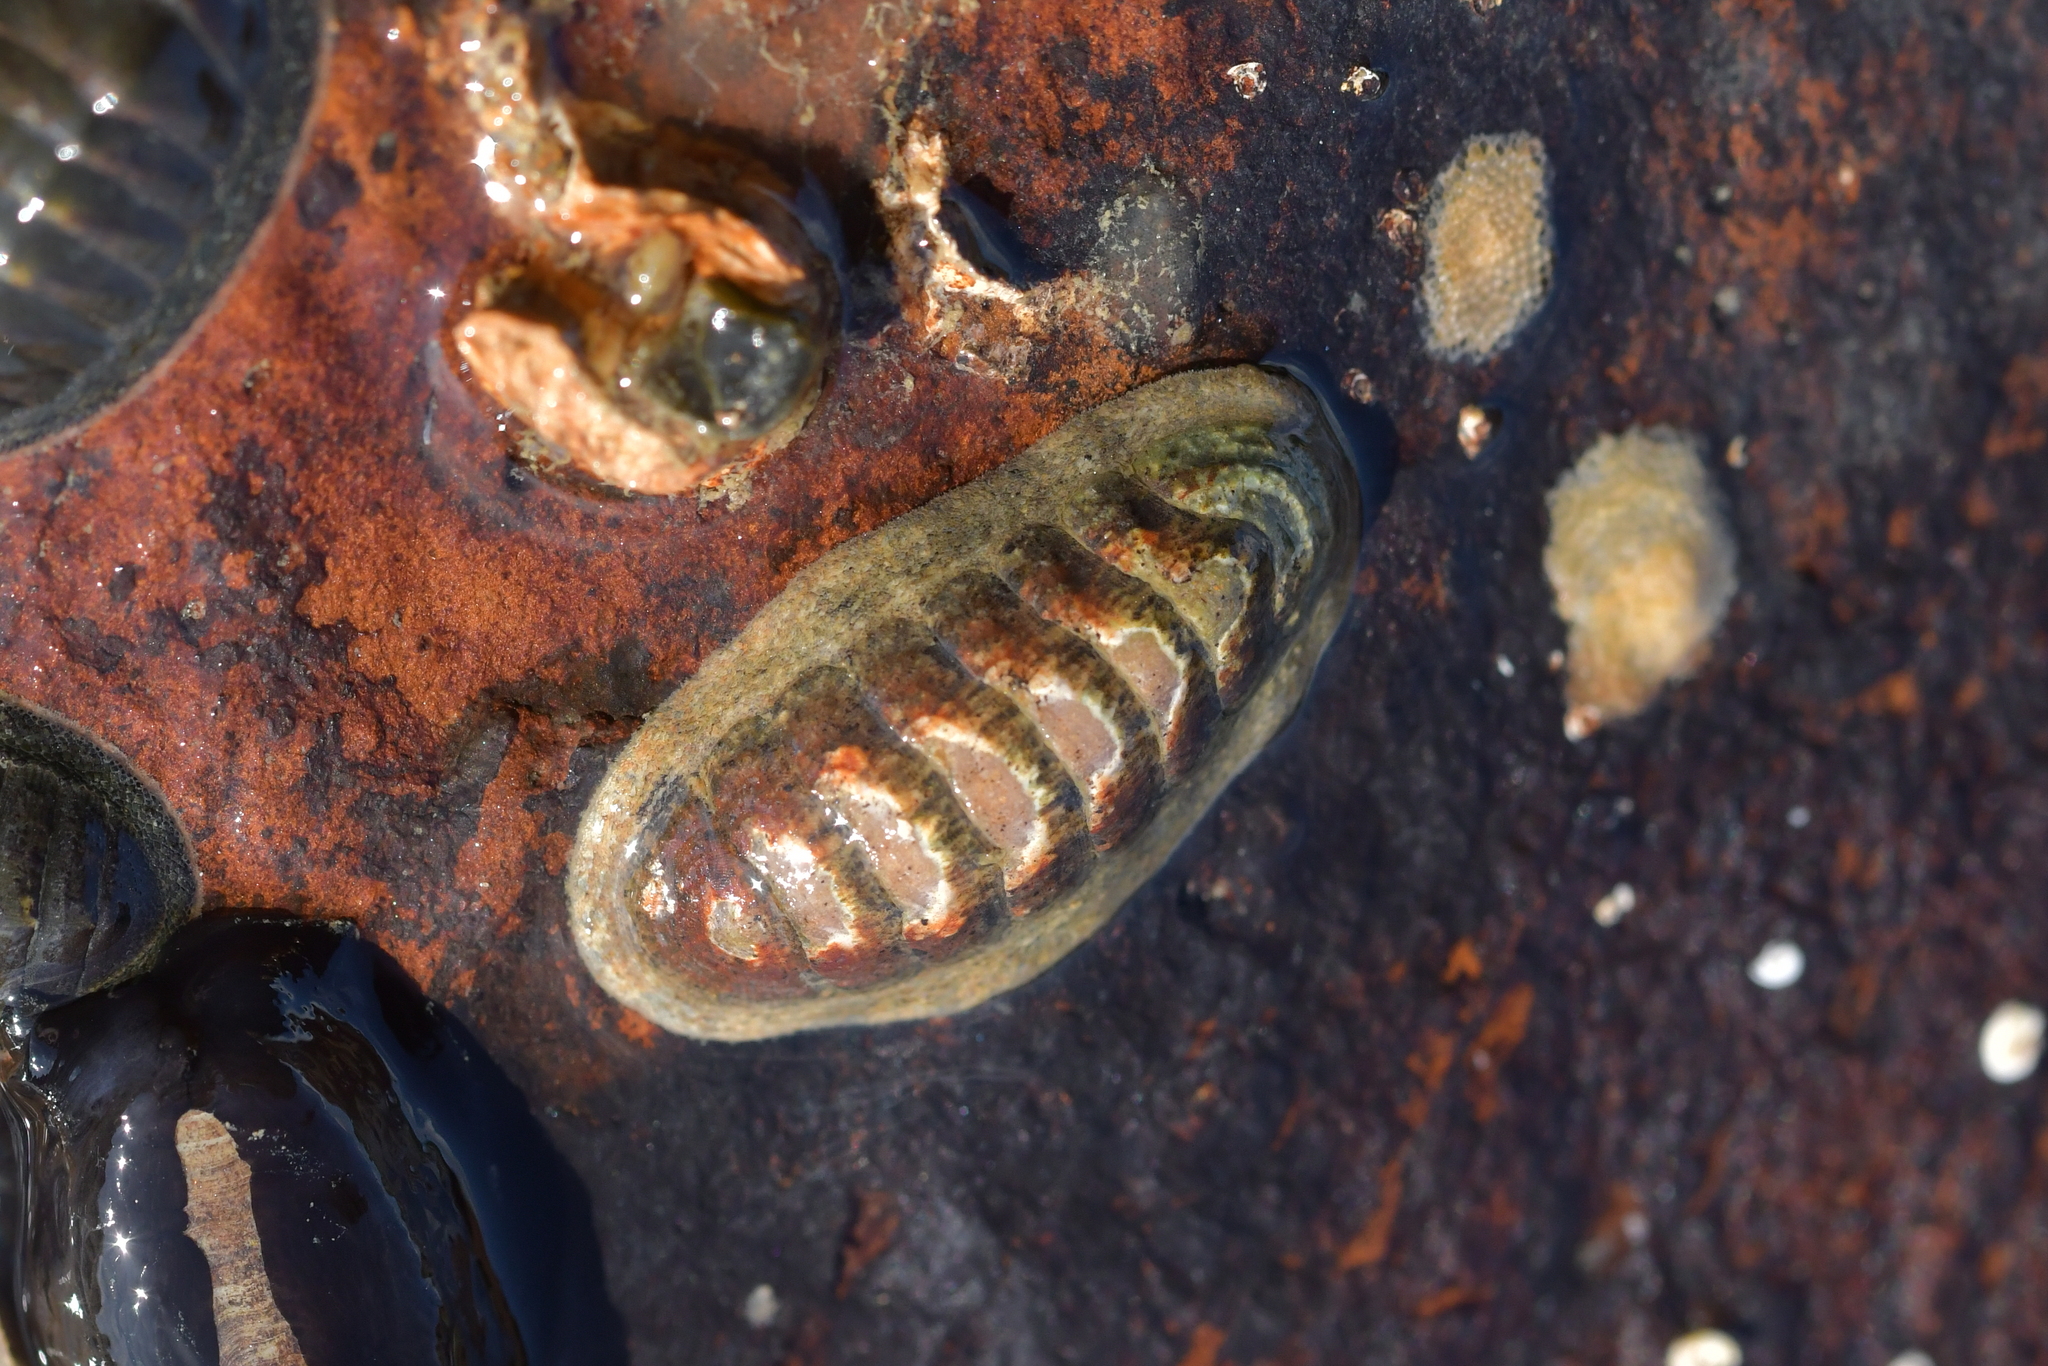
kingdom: Animalia
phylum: Mollusca
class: Polyplacophora
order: Chitonida
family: Ischnochitonidae
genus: Ischnochiton
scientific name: Ischnochiton maorianus
